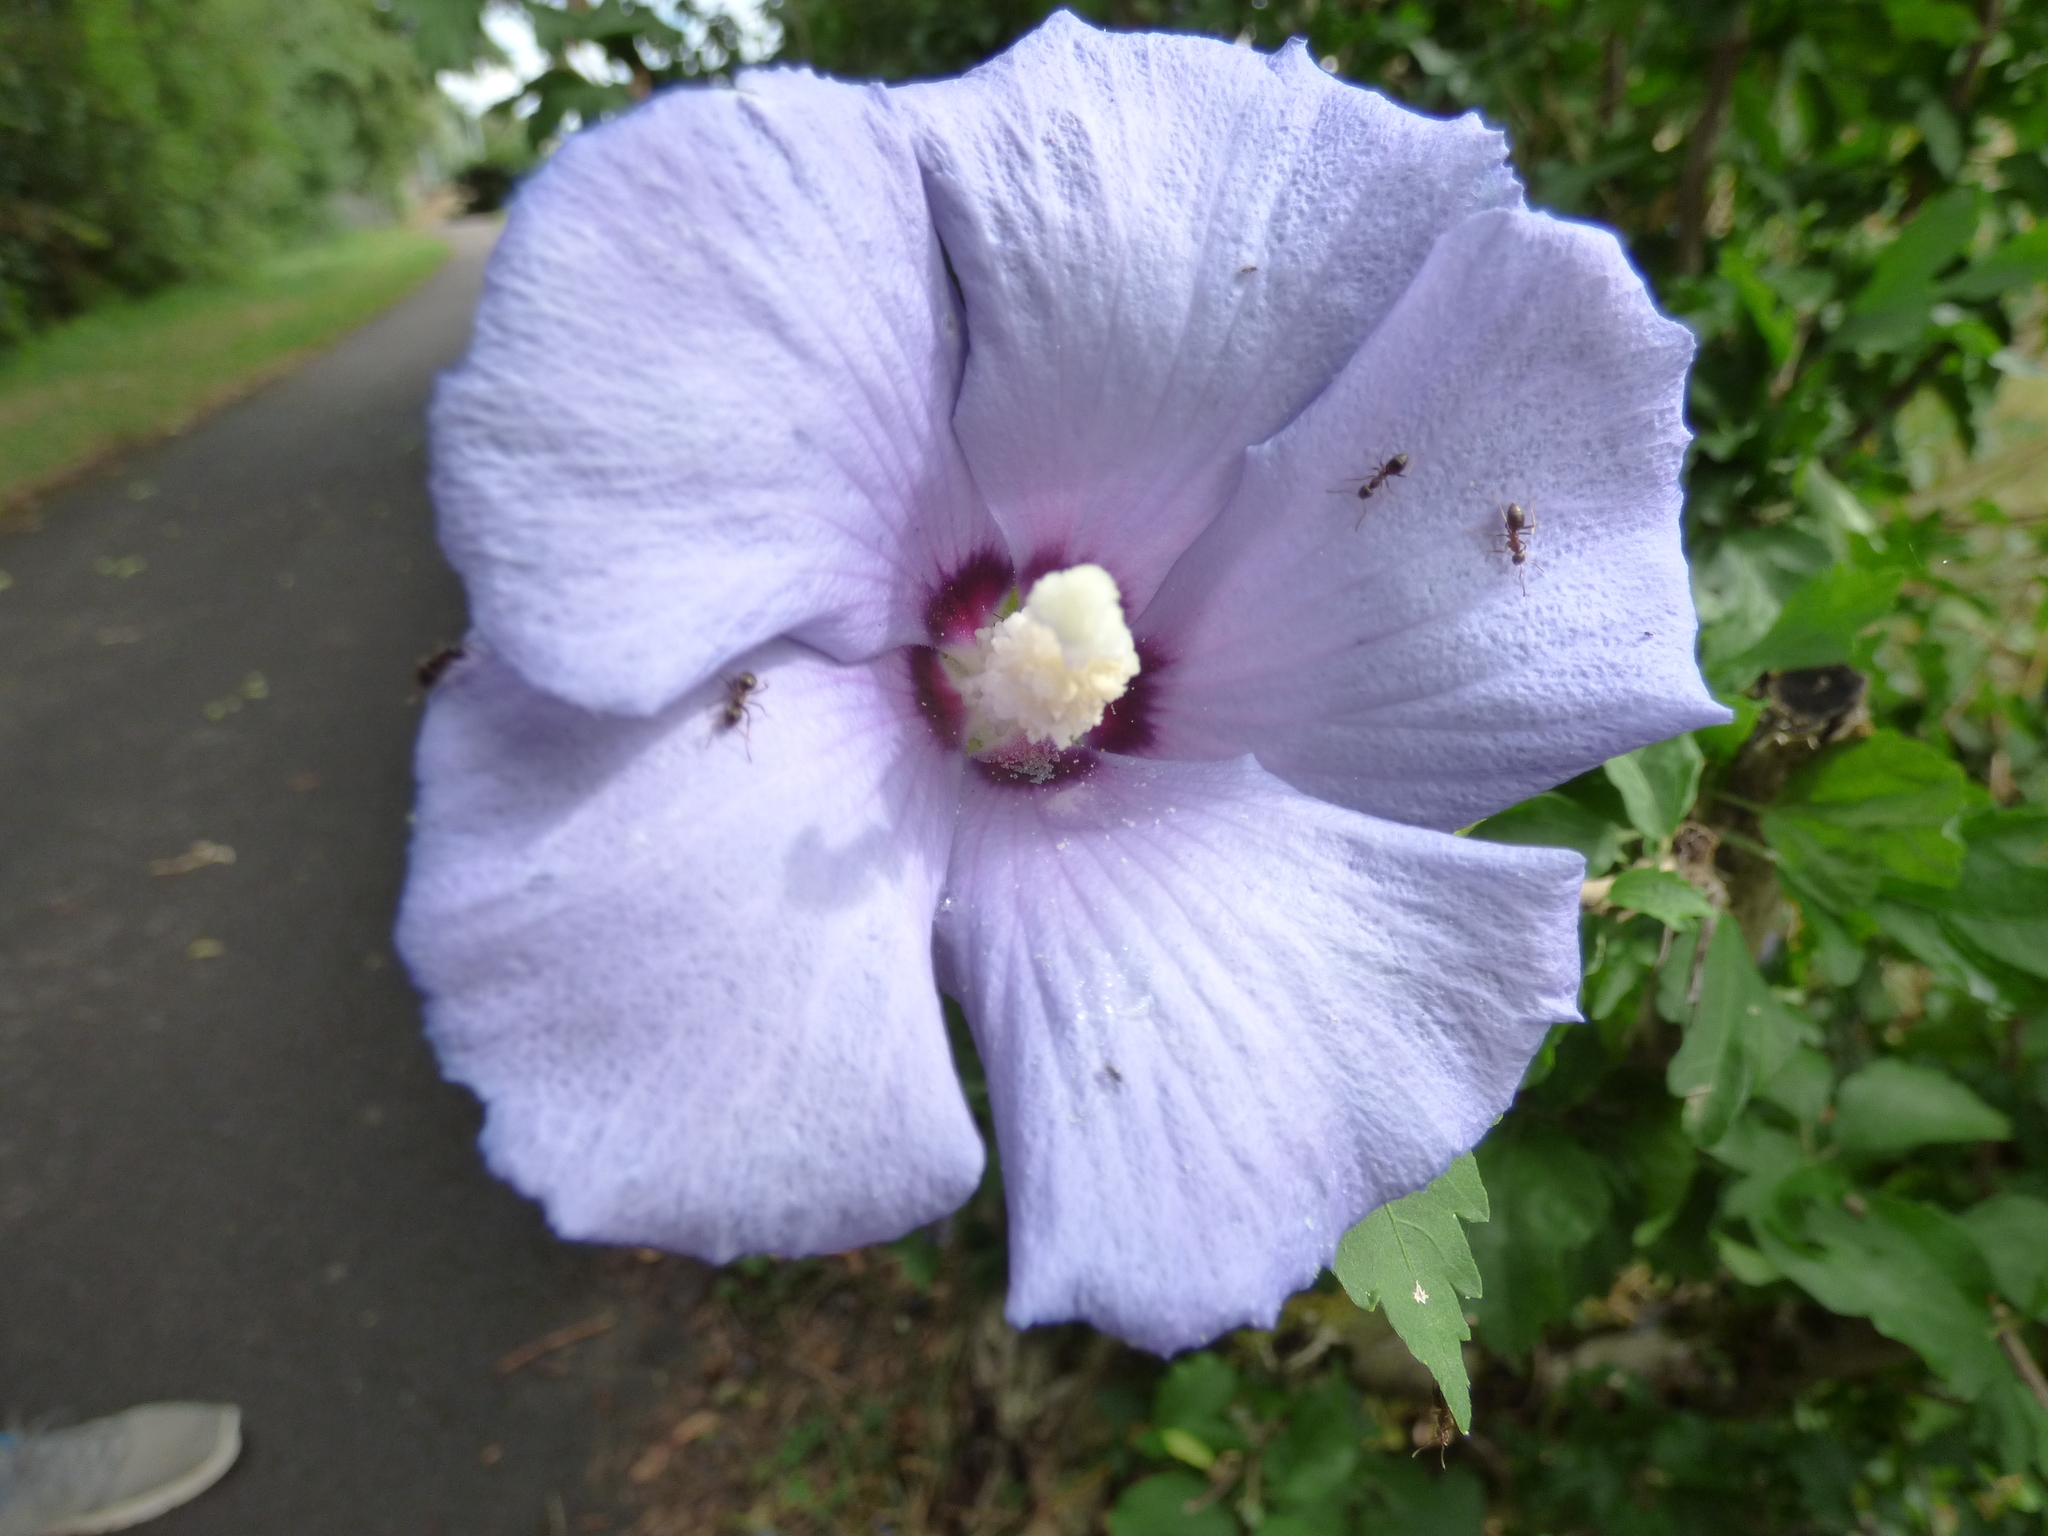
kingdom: Plantae
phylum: Tracheophyta
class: Magnoliopsida
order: Malvales
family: Malvaceae
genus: Hibiscus
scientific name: Hibiscus syriacus
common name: Syrian ketmia
